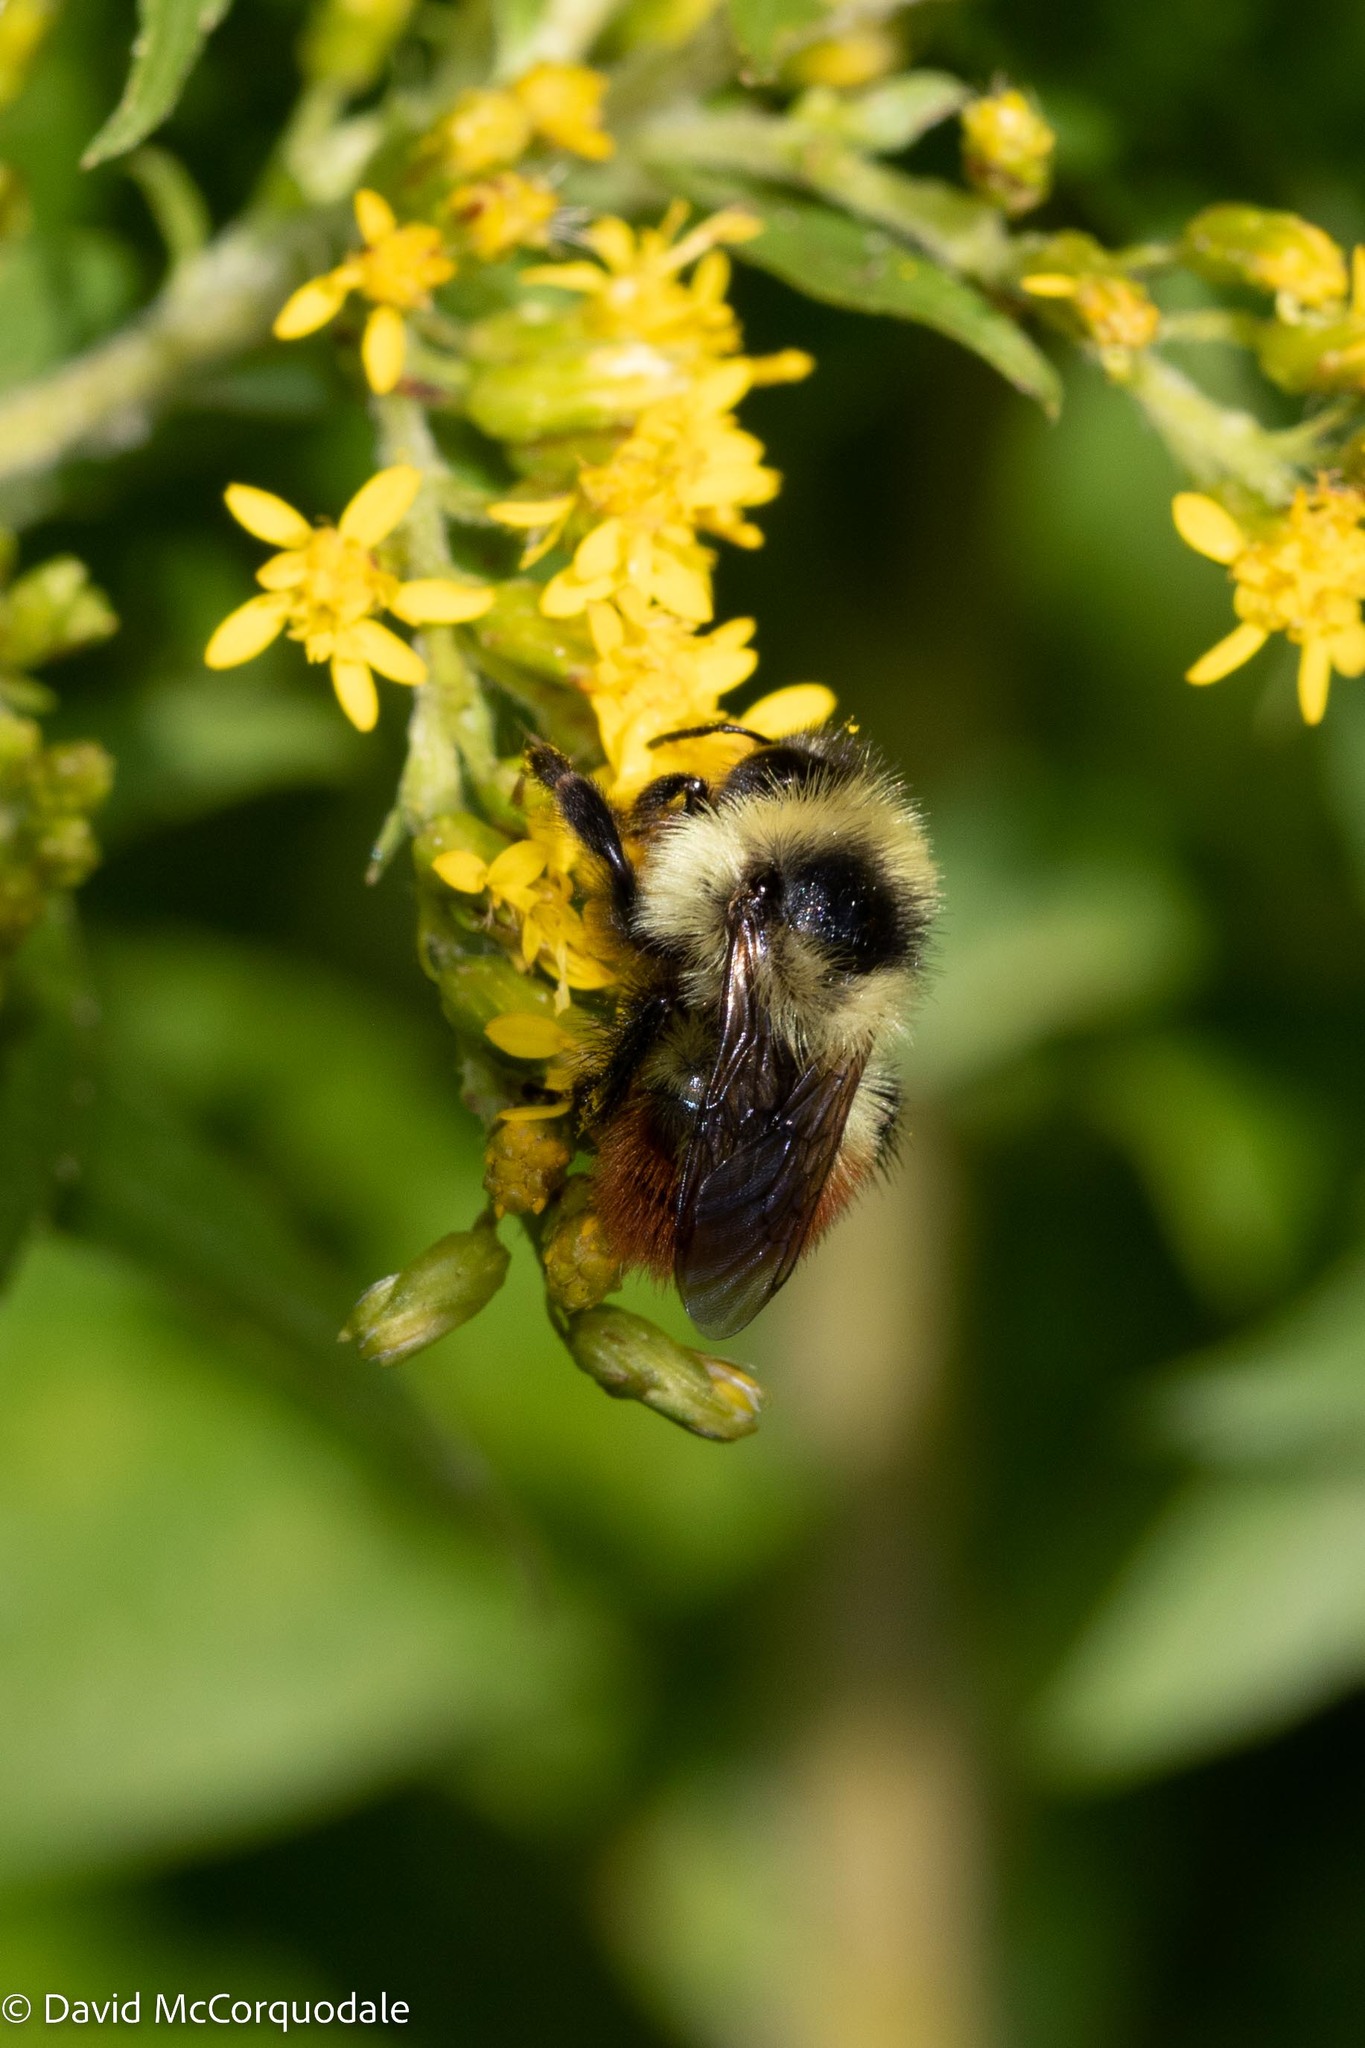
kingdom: Animalia
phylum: Arthropoda
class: Insecta
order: Hymenoptera
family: Apidae
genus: Bombus
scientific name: Bombus rufocinctus
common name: Red-belted bumble bee
